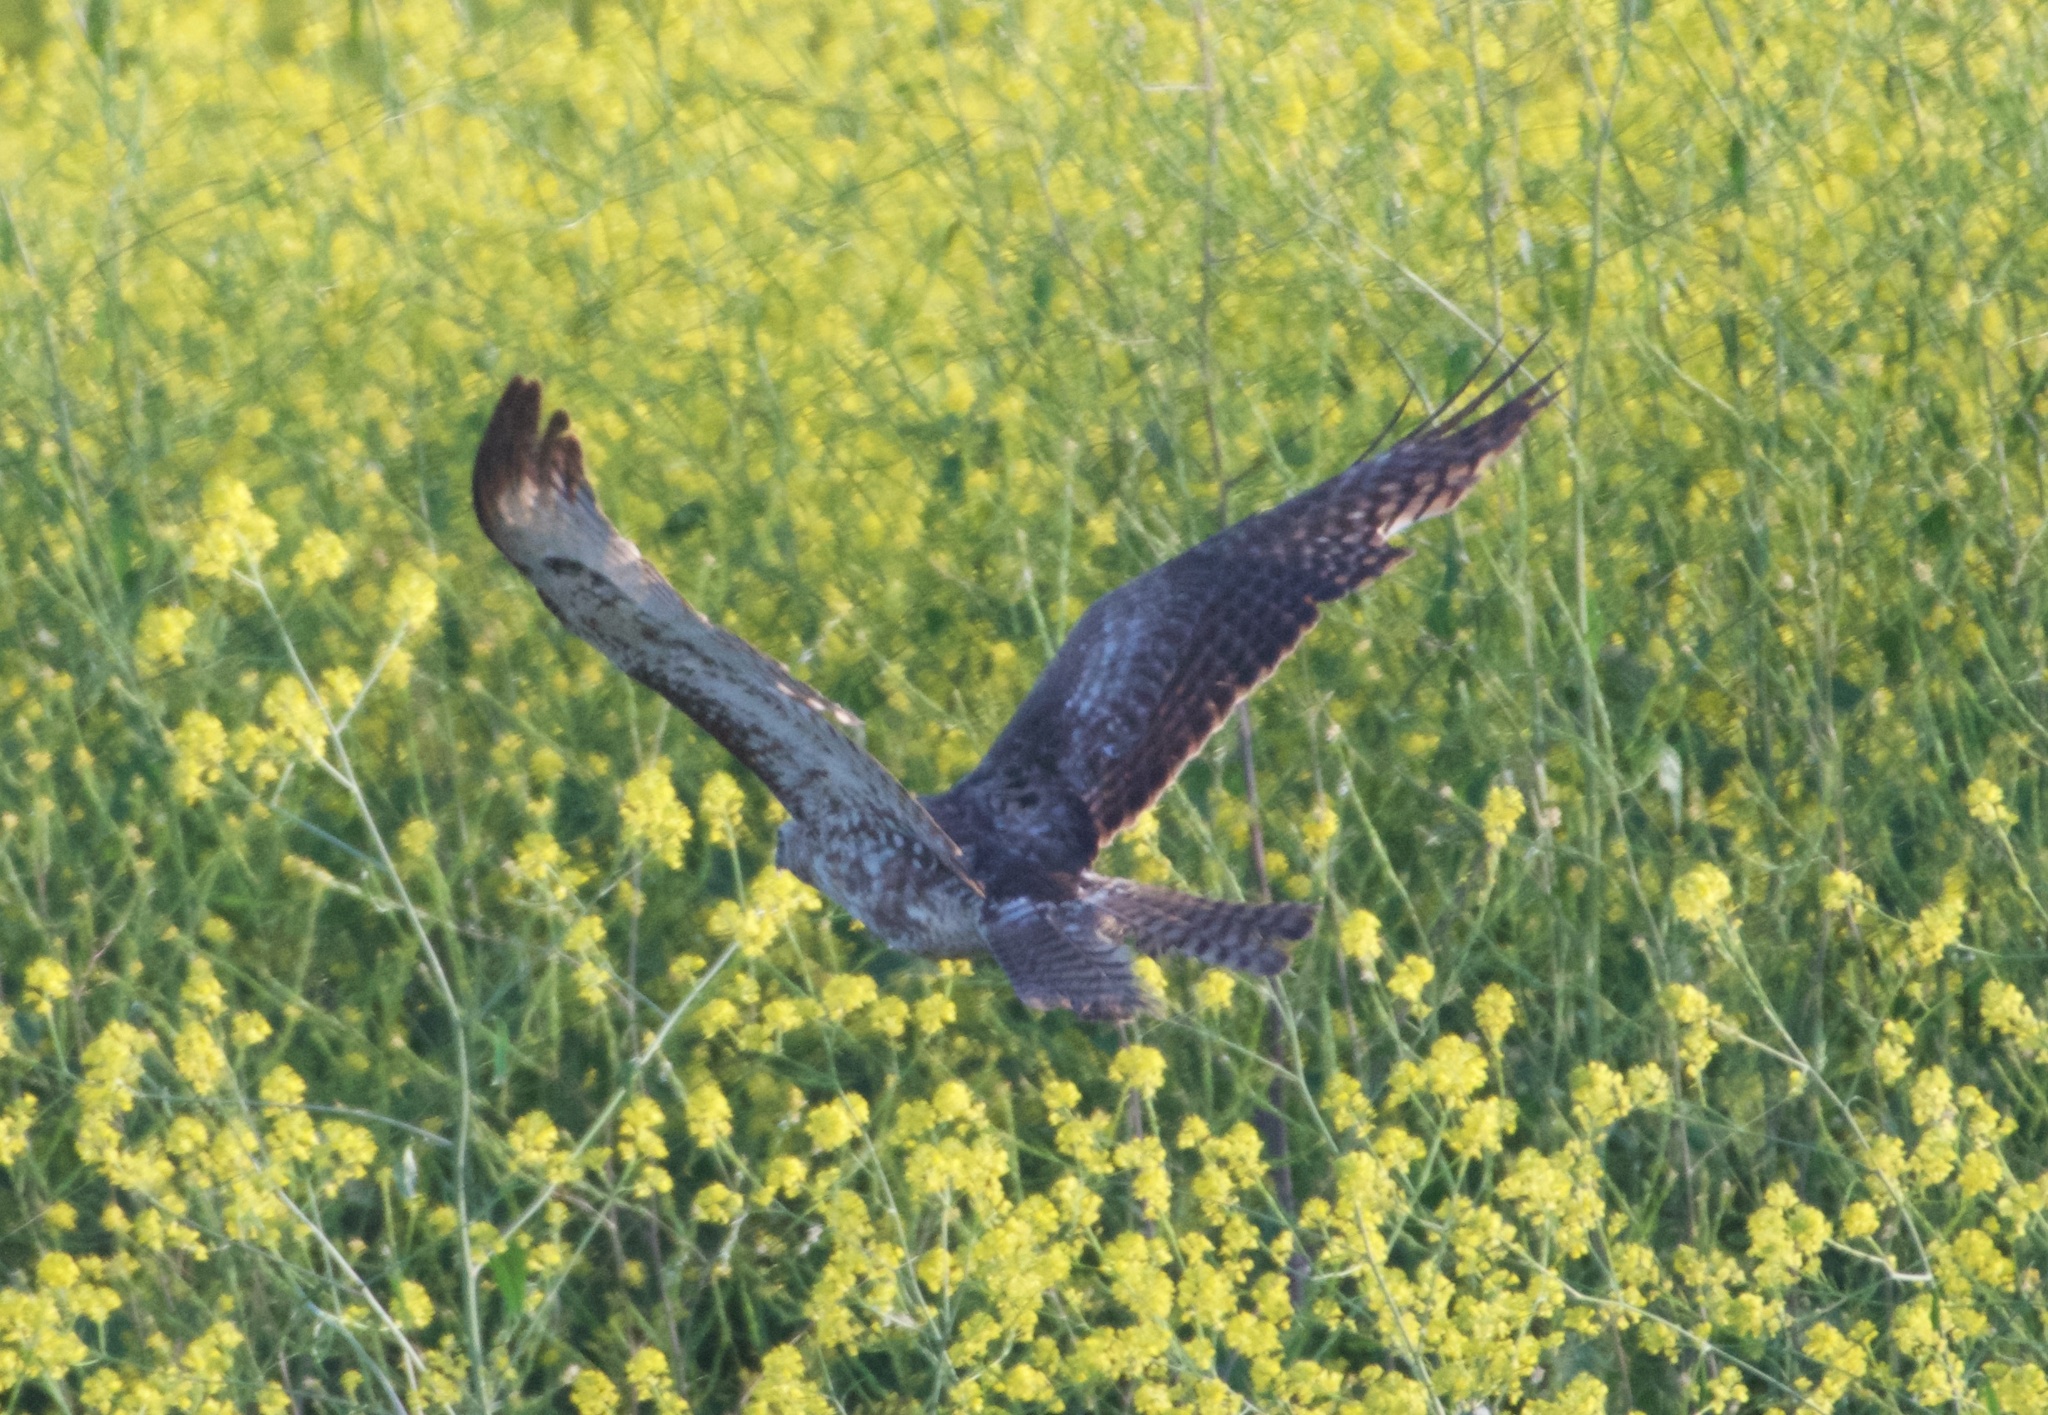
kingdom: Animalia
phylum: Chordata
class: Aves
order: Accipitriformes
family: Accipitridae
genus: Buteo
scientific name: Buteo jamaicensis
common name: Red-tailed hawk
